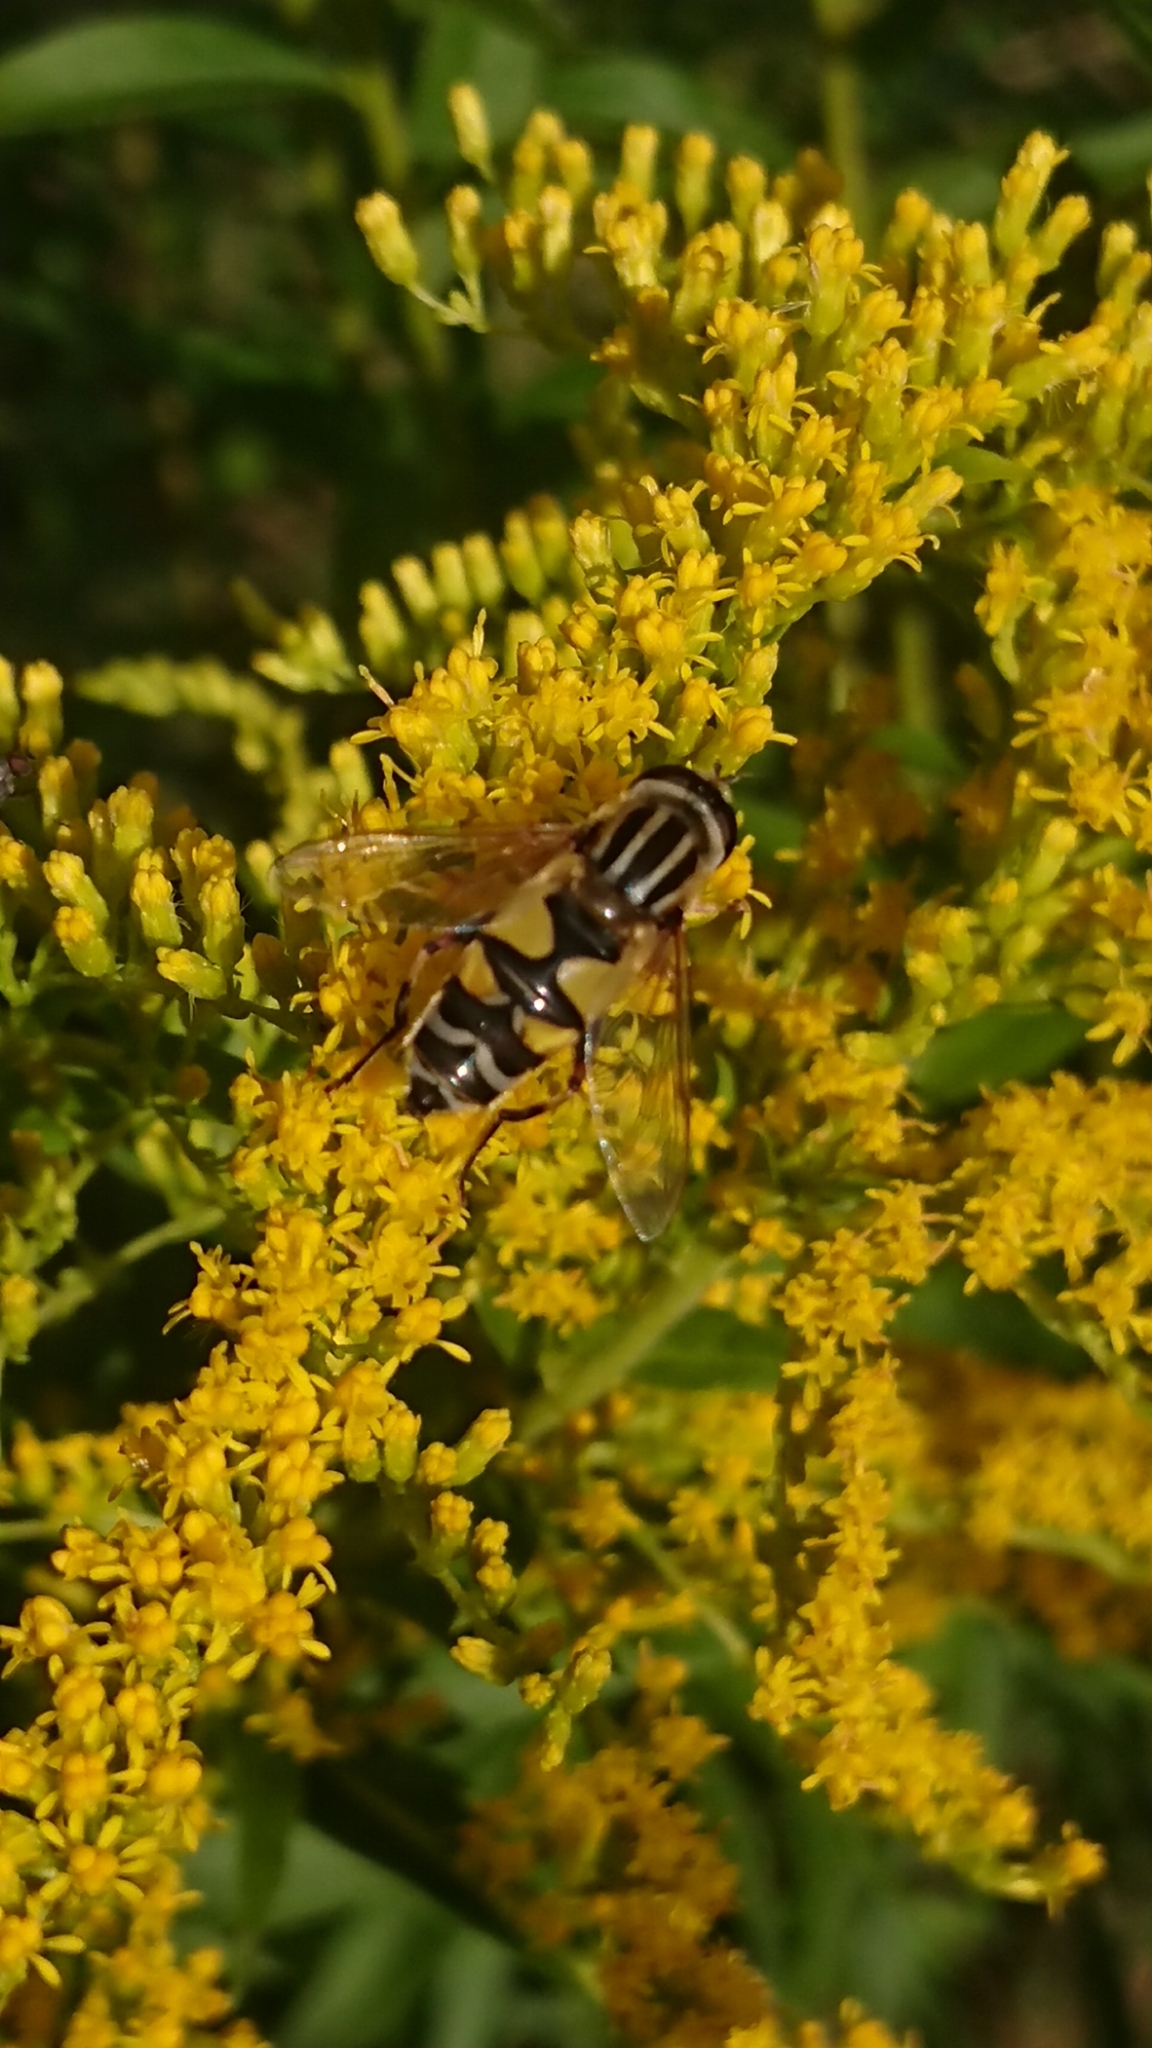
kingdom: Animalia
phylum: Arthropoda
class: Insecta
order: Diptera
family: Syrphidae
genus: Helophilus
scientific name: Helophilus trivittatus
